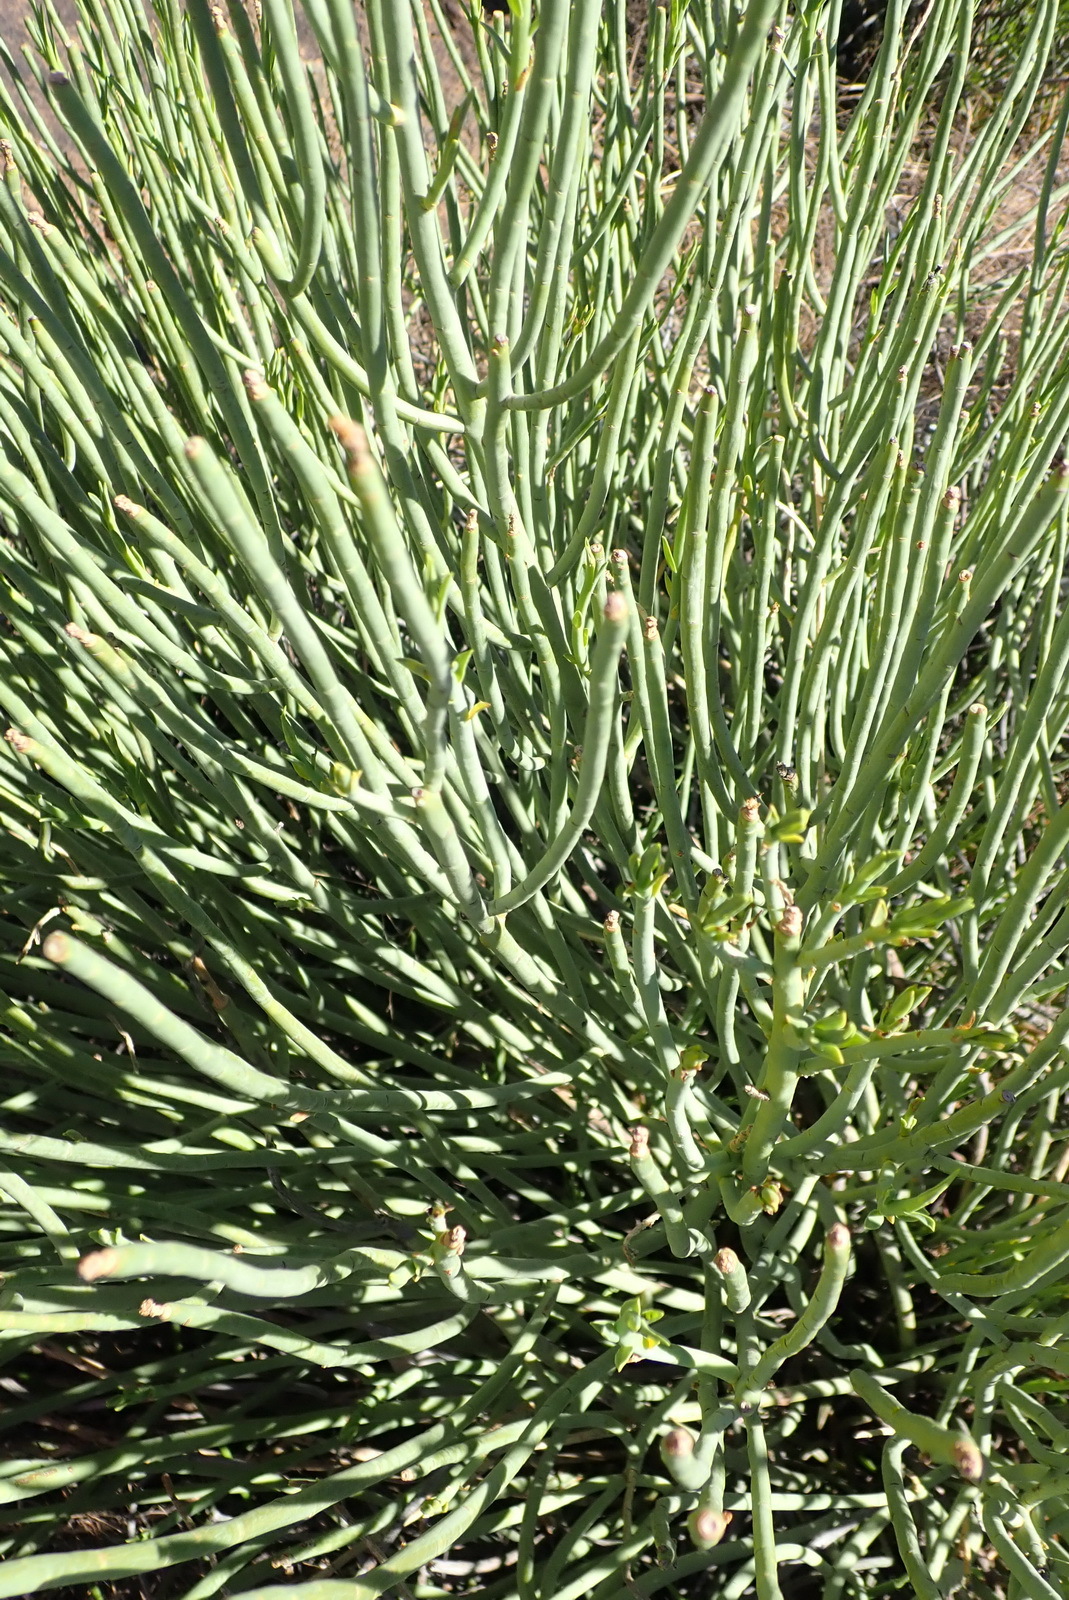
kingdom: Plantae
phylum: Tracheophyta
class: Magnoliopsida
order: Malpighiales
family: Euphorbiaceae
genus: Euphorbia
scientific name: Euphorbia mauritanica
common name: Jackal's-food
